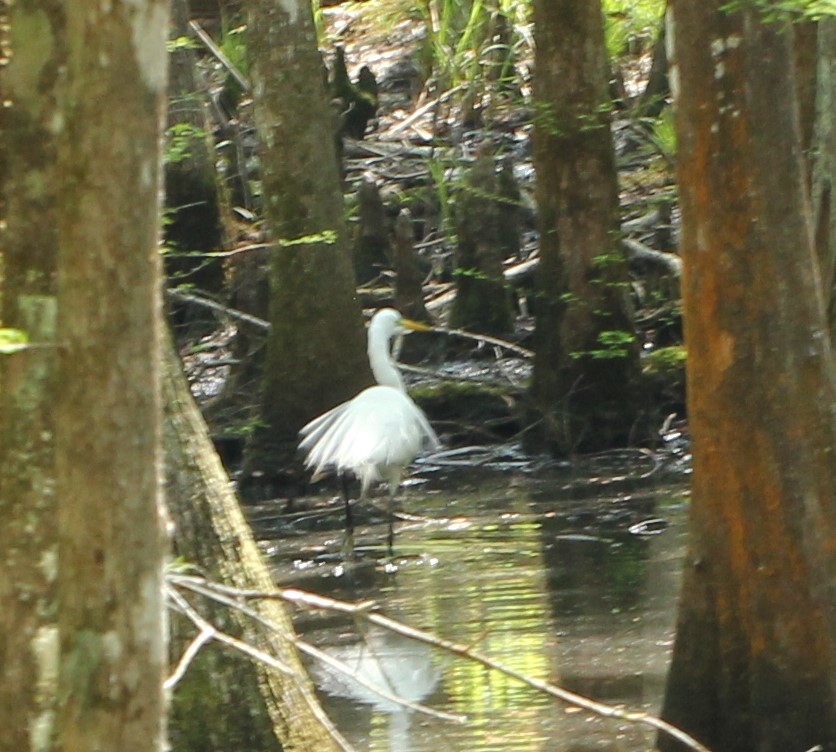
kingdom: Animalia
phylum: Chordata
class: Aves
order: Pelecaniformes
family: Ardeidae
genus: Ardea
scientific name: Ardea alba
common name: Great egret
